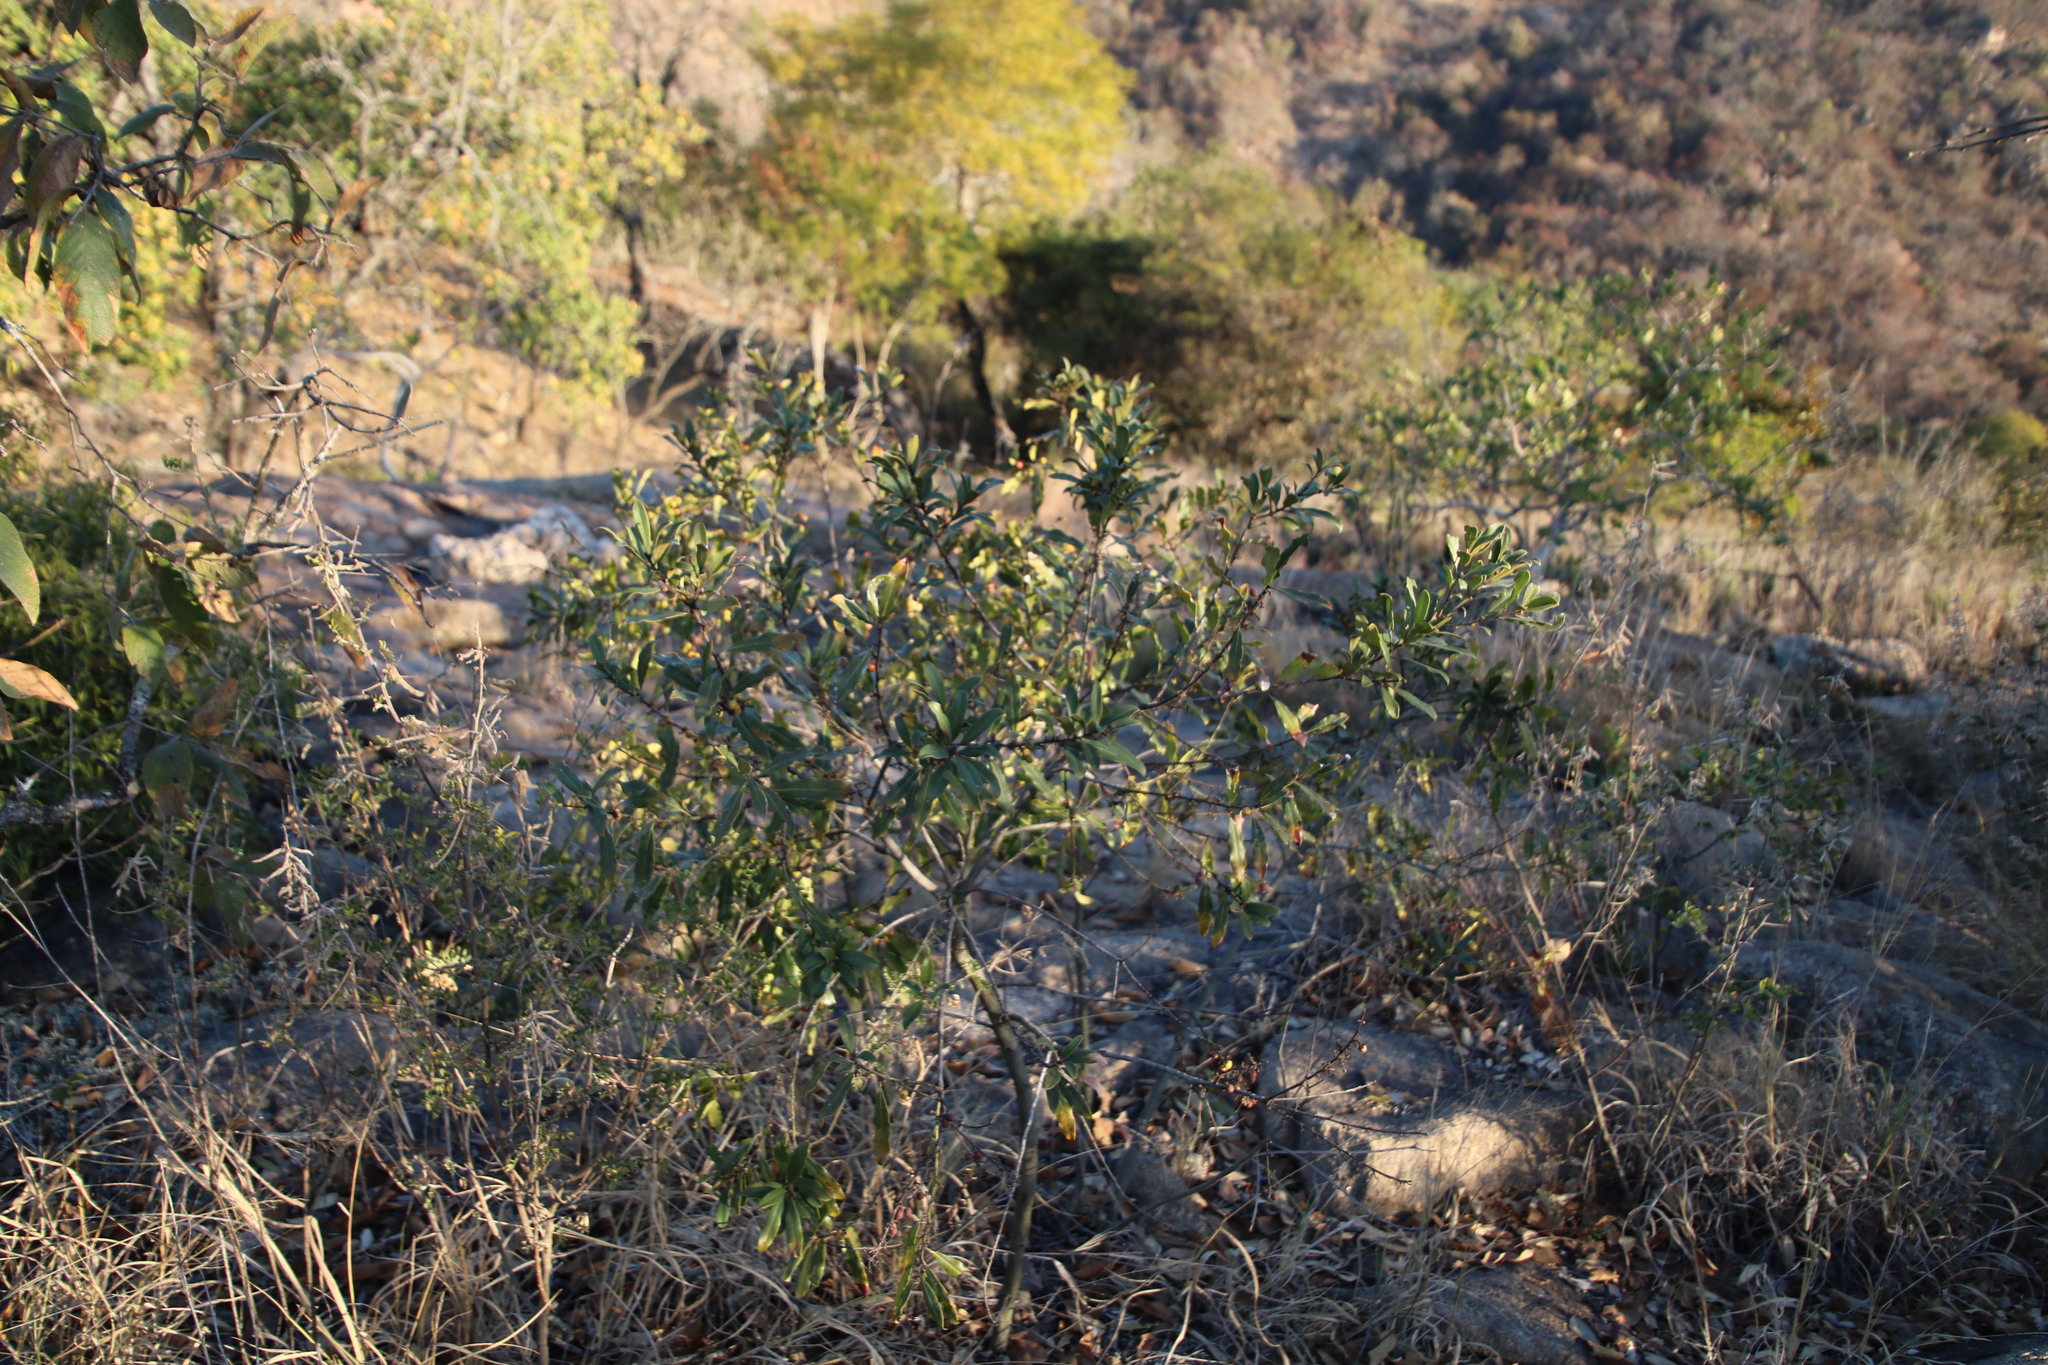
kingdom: Plantae
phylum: Tracheophyta
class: Magnoliopsida
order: Ericales
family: Ebenaceae
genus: Euclea
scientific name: Euclea natalensis
